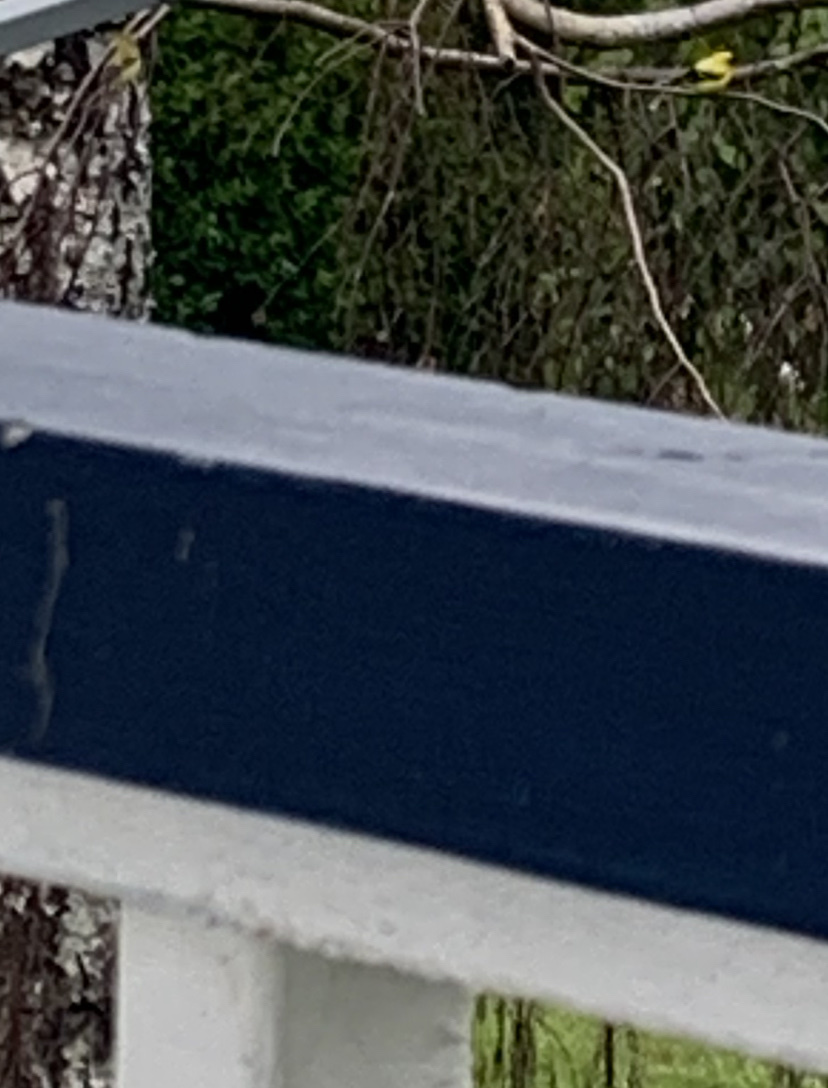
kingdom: Animalia
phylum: Chordata
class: Aves
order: Passeriformes
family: Fringillidae
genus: Spinus
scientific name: Spinus tristis
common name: American goldfinch
